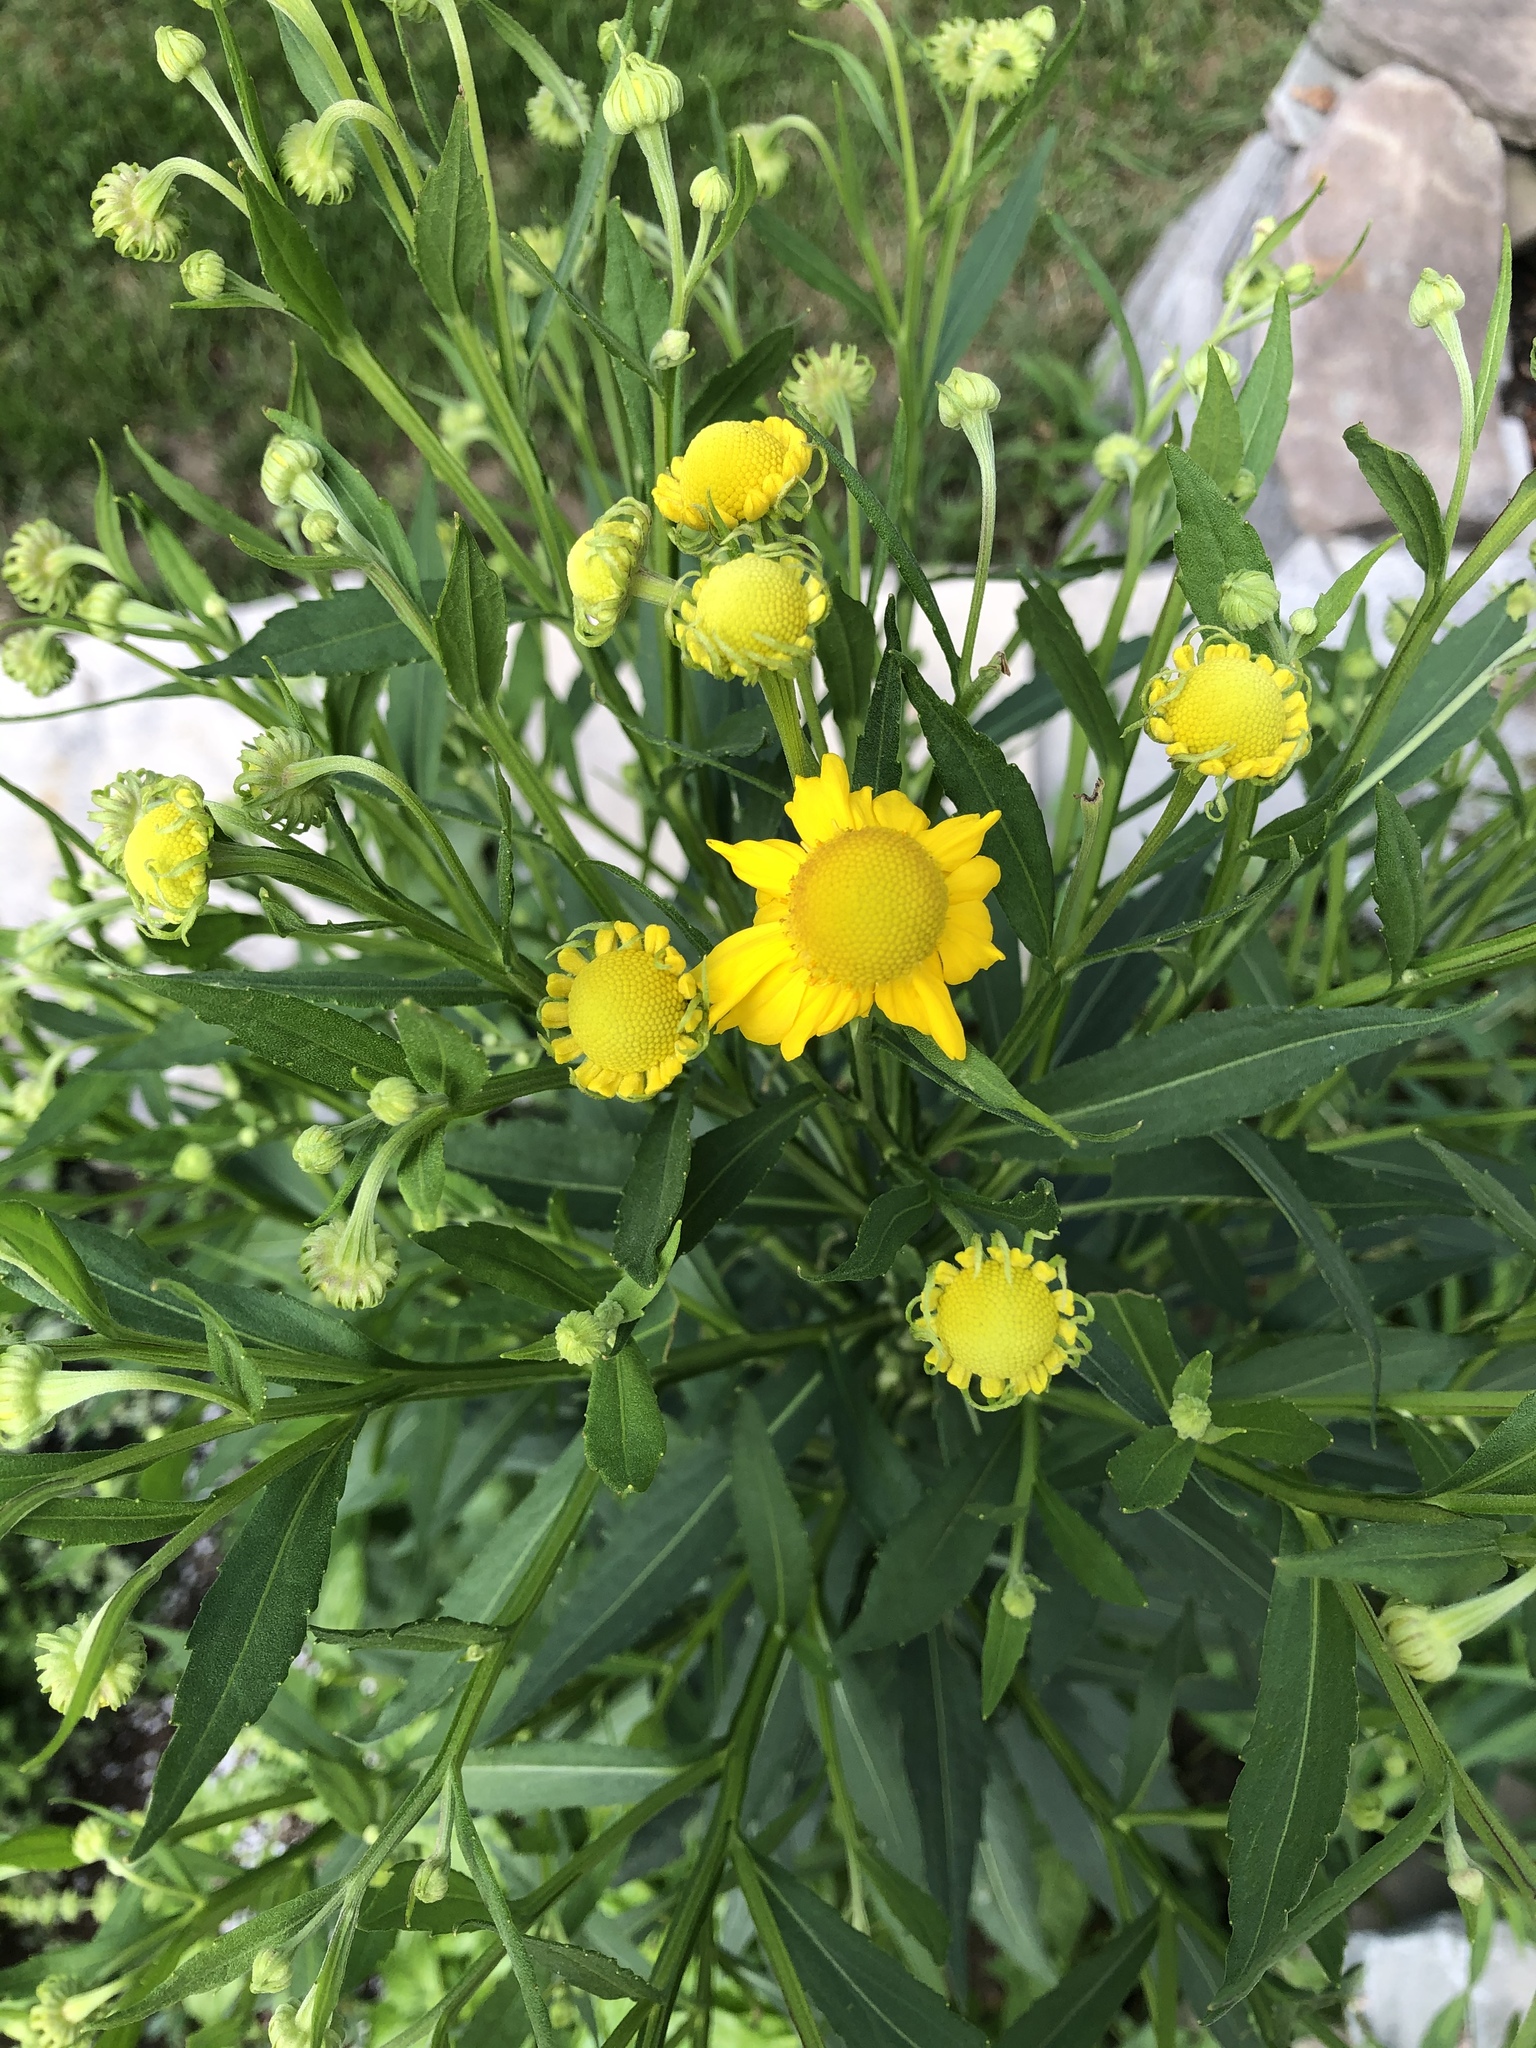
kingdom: Plantae
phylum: Tracheophyta
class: Magnoliopsida
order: Asterales
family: Asteraceae
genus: Helenium
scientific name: Helenium autumnale
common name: Sneezeweed
